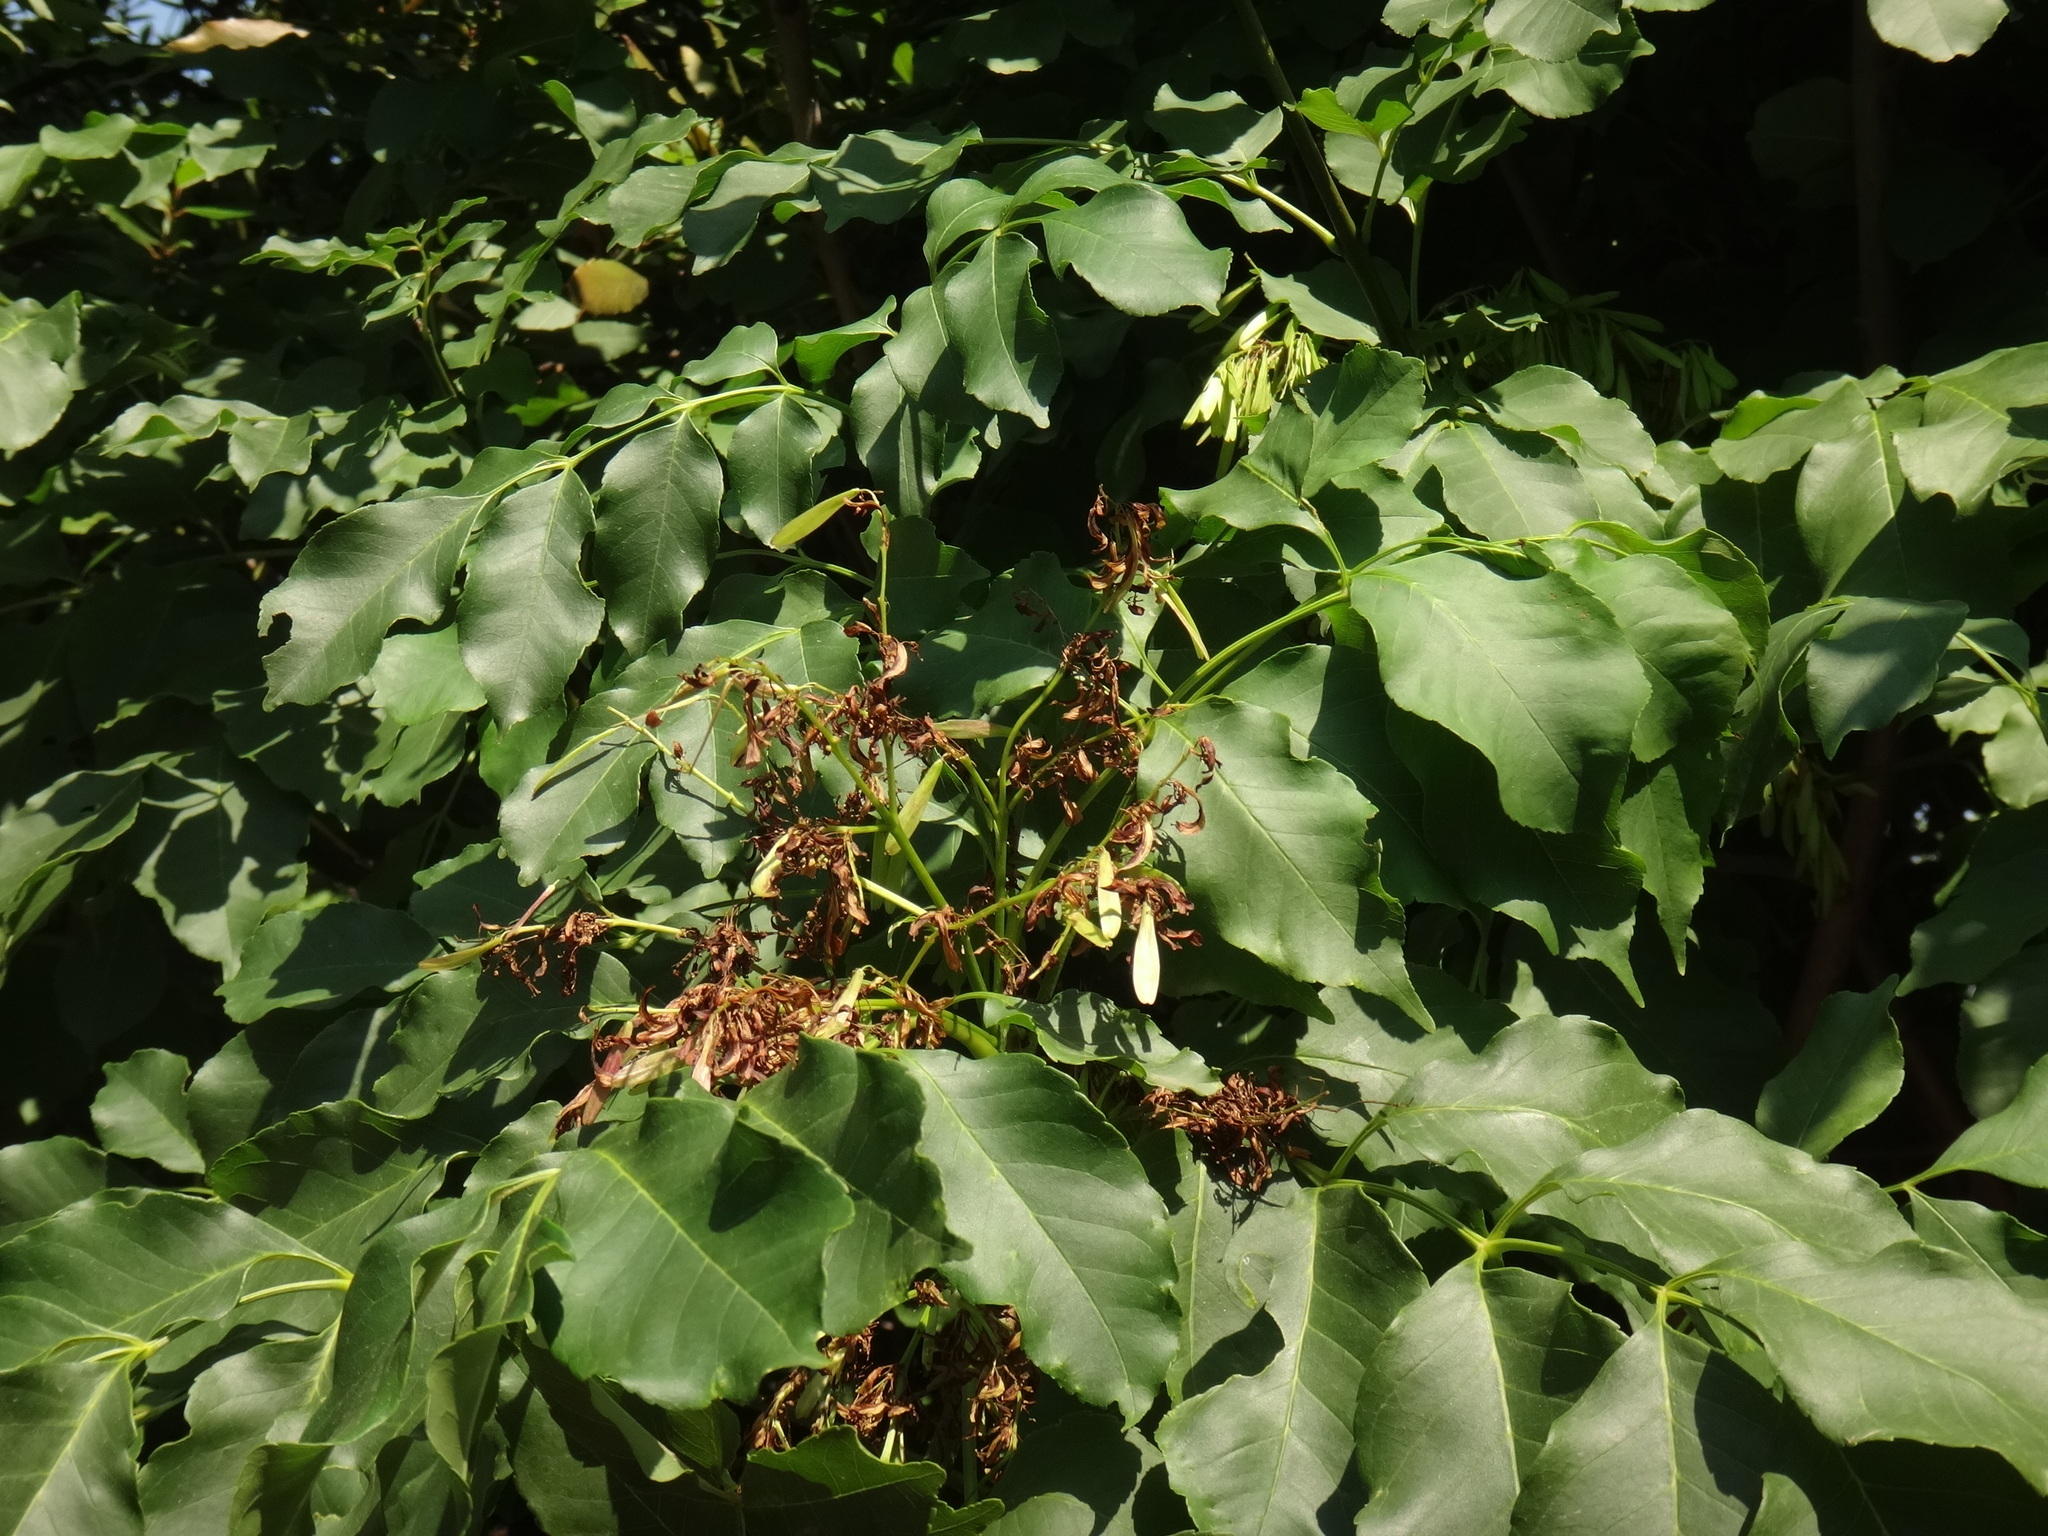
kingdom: Plantae
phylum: Tracheophyta
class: Magnoliopsida
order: Lamiales
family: Oleaceae
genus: Fraxinus
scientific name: Fraxinus ornus
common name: Manna ash
